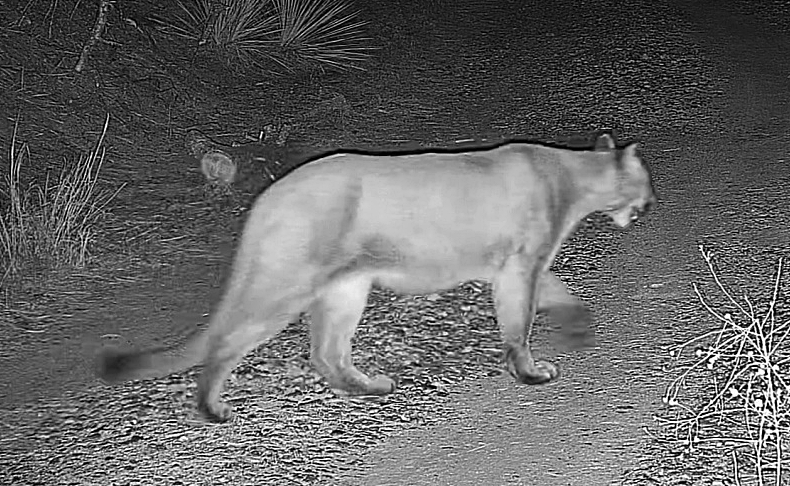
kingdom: Animalia
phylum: Chordata
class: Mammalia
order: Carnivora
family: Felidae
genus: Puma
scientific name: Puma concolor
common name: Puma
